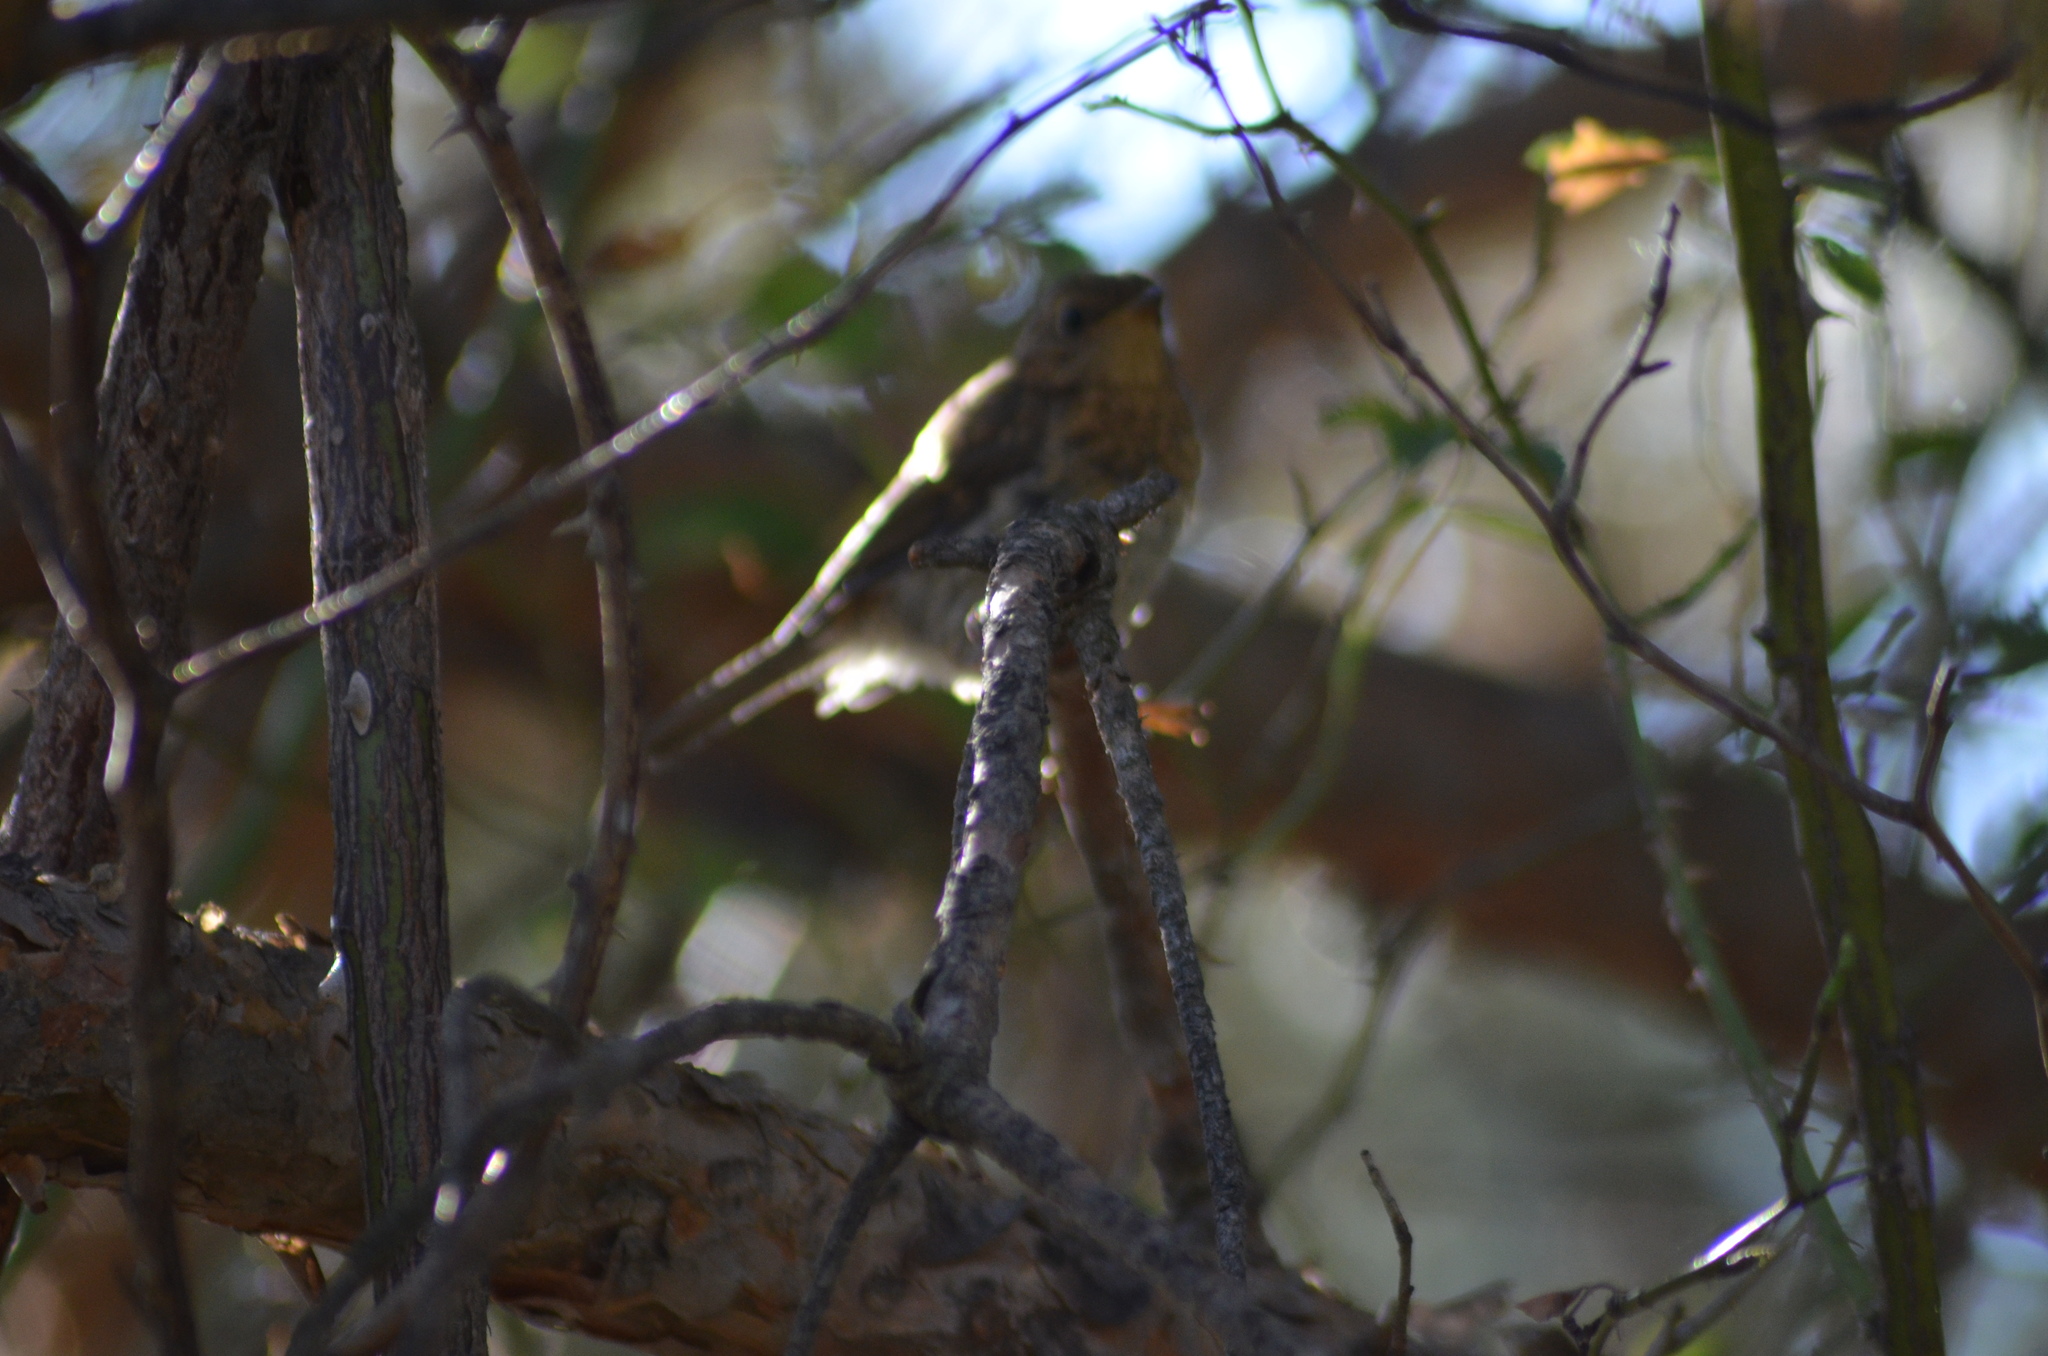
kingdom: Animalia
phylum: Chordata
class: Aves
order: Passeriformes
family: Muscicapidae
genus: Erithacus
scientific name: Erithacus rubecula
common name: European robin
